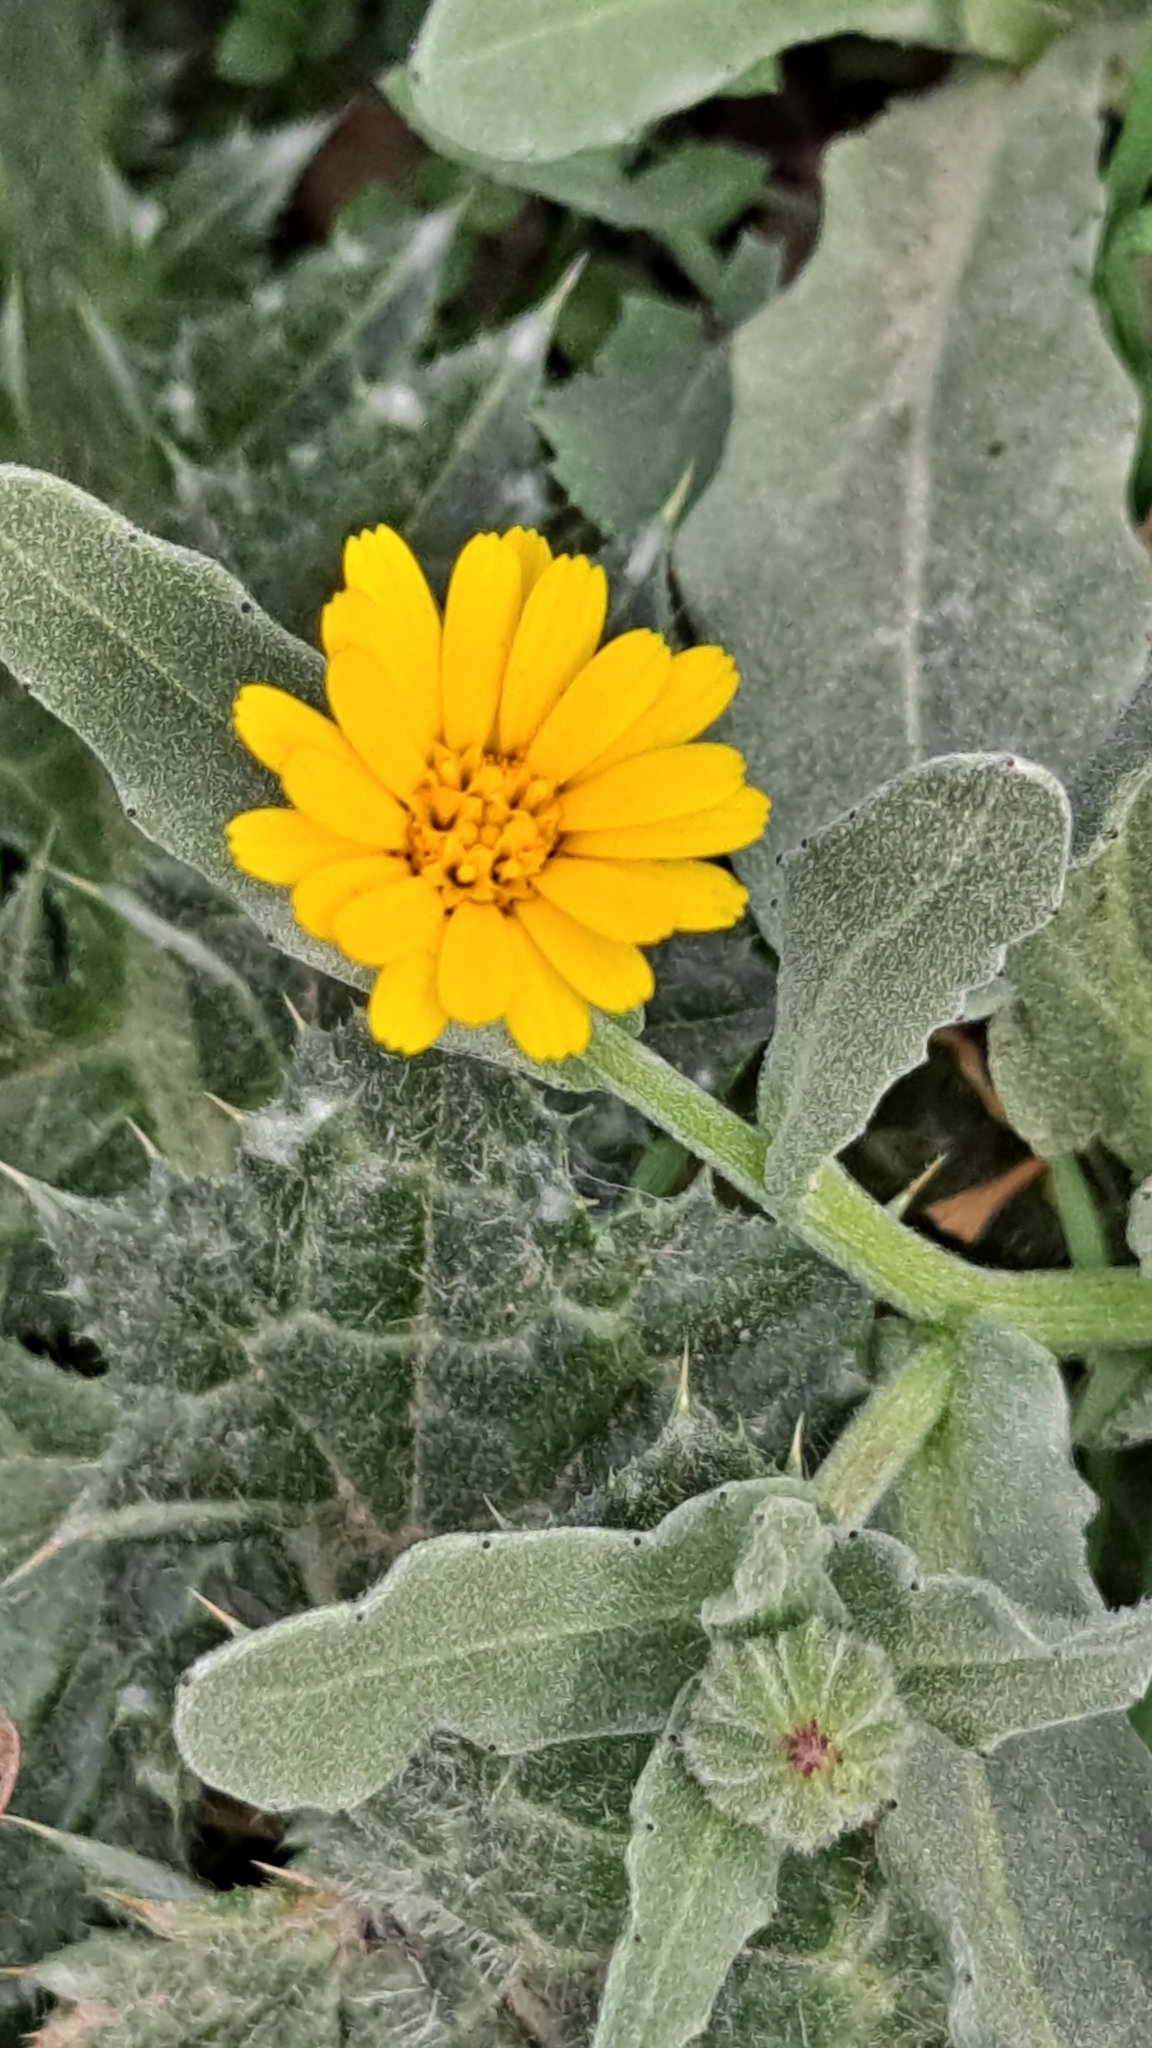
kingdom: Plantae
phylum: Tracheophyta
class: Magnoliopsida
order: Asterales
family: Asteraceae
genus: Calendula
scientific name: Calendula arvensis
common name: Field marigold
